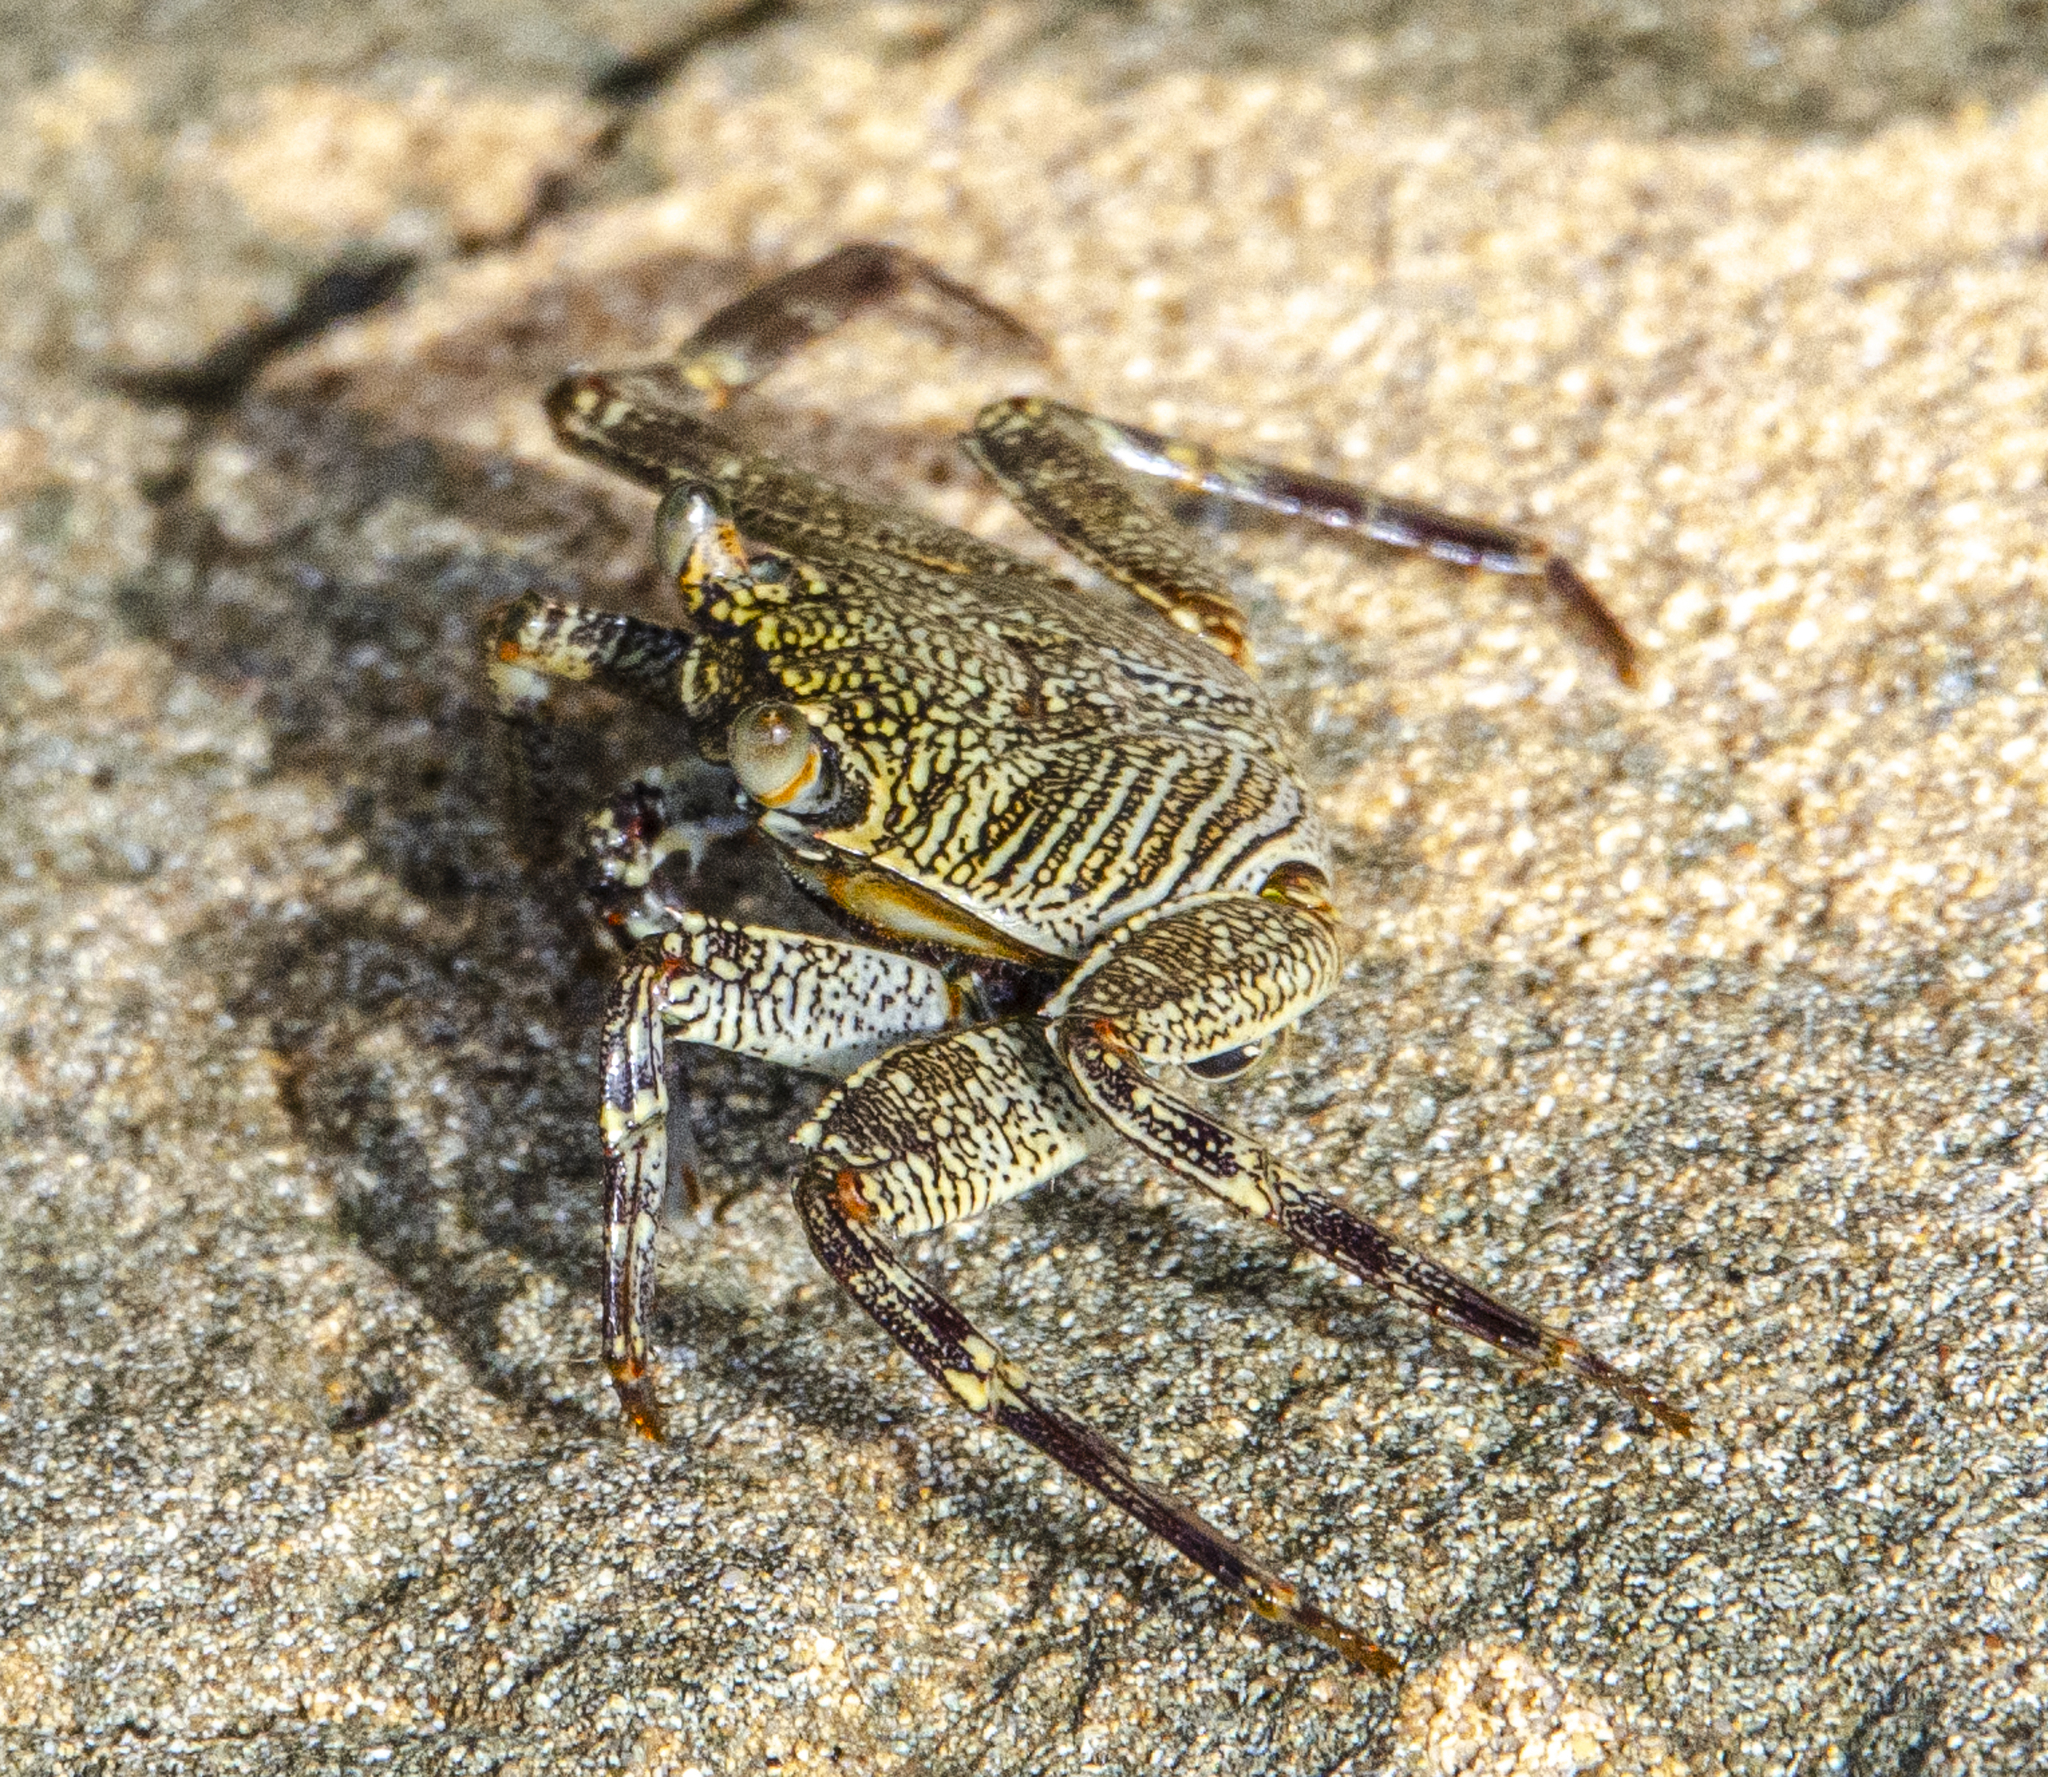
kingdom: Animalia
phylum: Arthropoda
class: Malacostraca
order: Decapoda
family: Grapsidae
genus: Grapsus
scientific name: Grapsus tenuicrustatus
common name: Natal lightfoot crab
